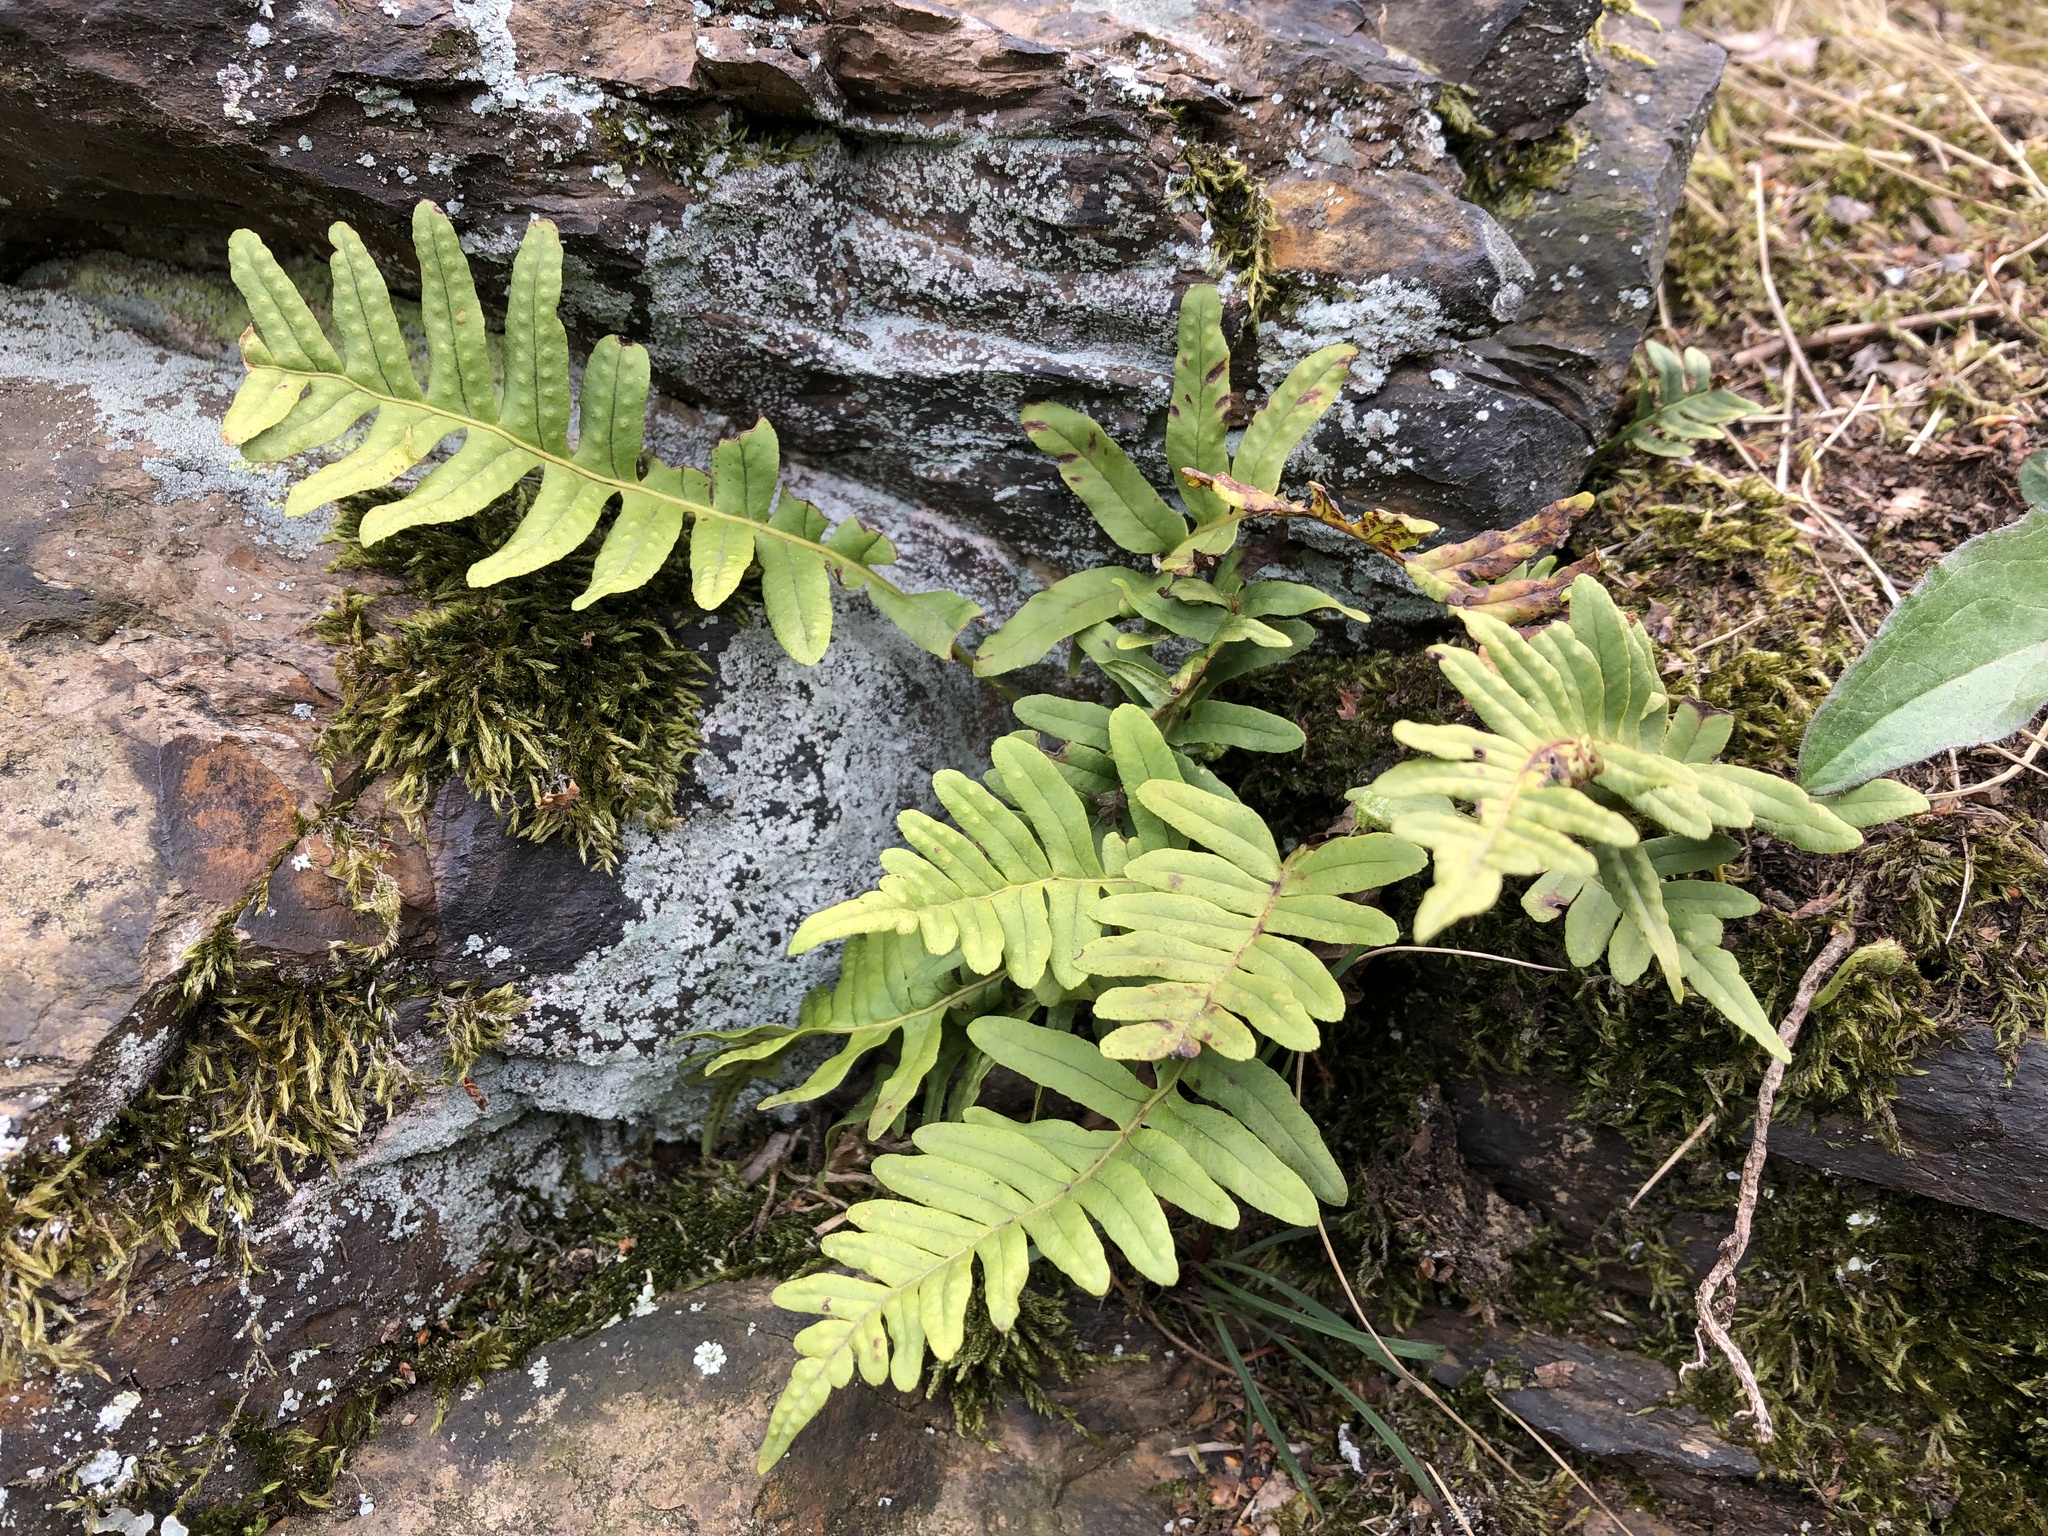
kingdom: Plantae
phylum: Tracheophyta
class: Polypodiopsida
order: Polypodiales
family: Polypodiaceae
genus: Polypodium
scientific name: Polypodium vulgare
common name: Common polypody
